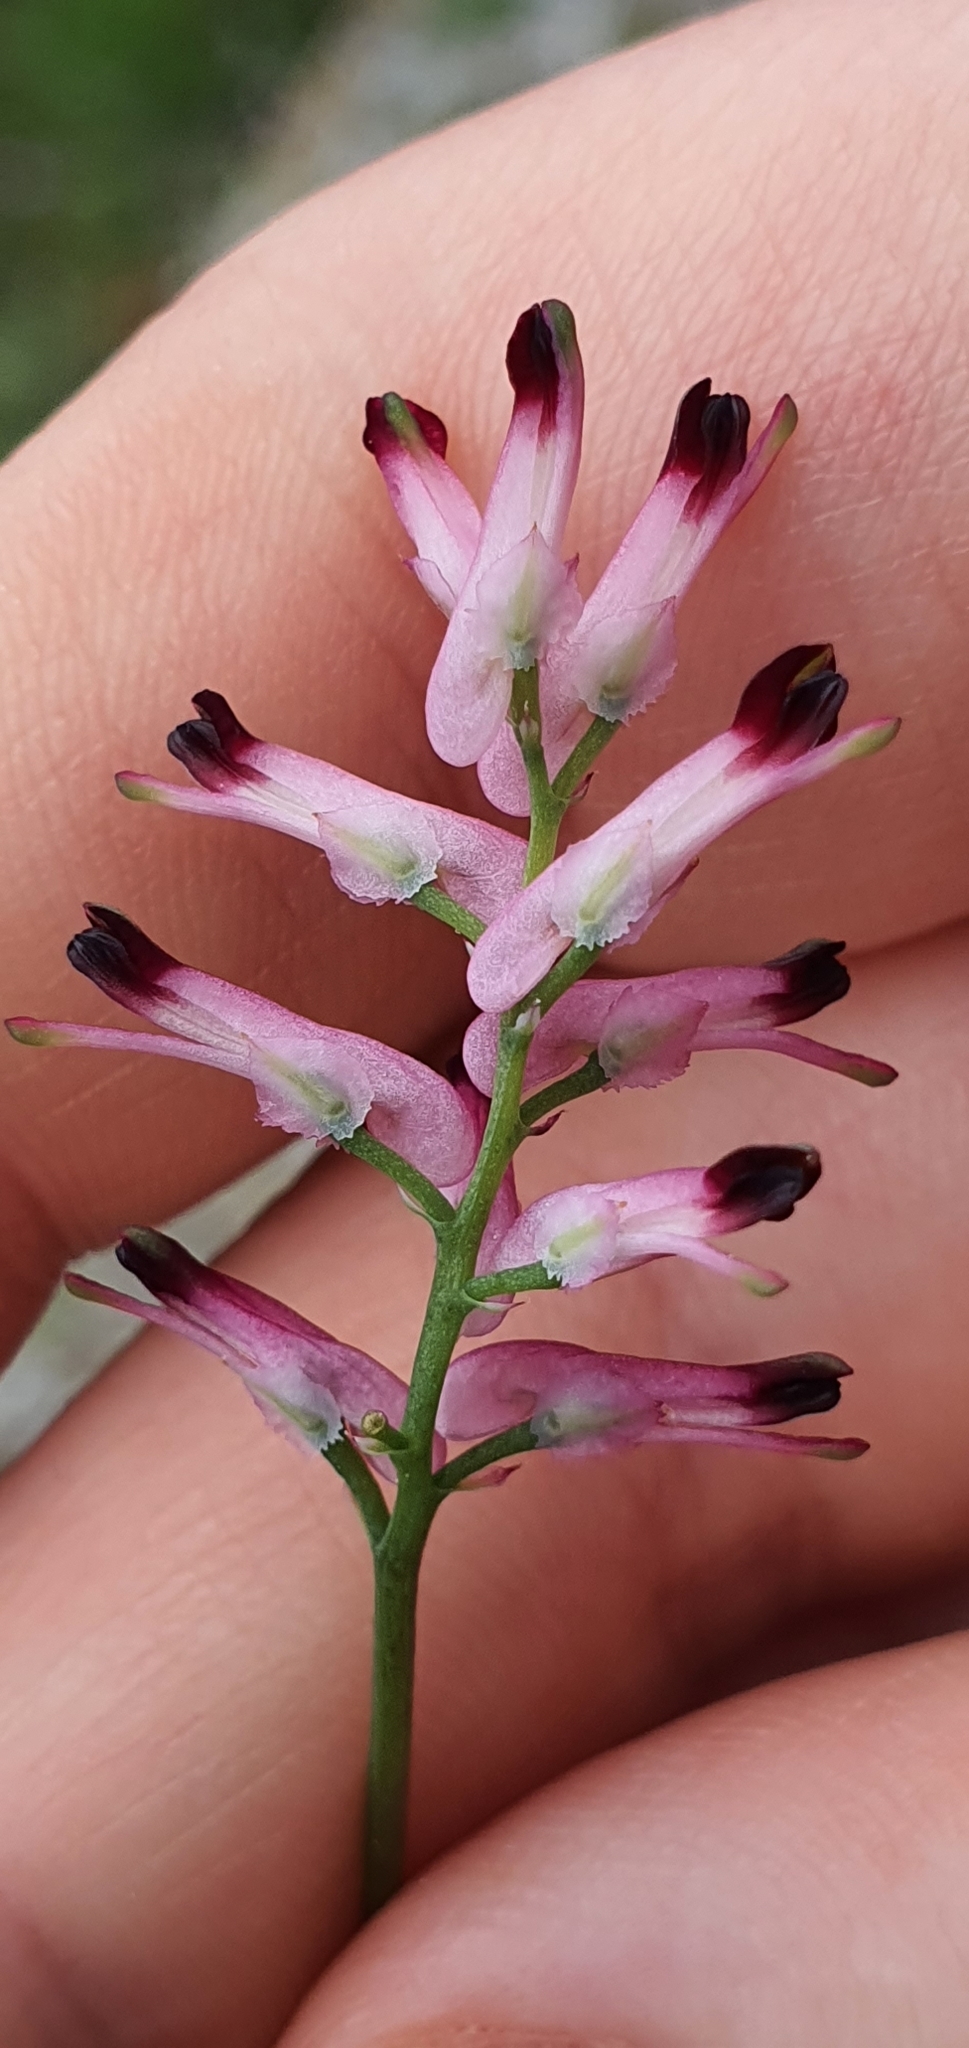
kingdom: Plantae
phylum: Tracheophyta
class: Magnoliopsida
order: Ranunculales
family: Papaveraceae
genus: Fumaria
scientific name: Fumaria muralis
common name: Common ramping-fumitory
